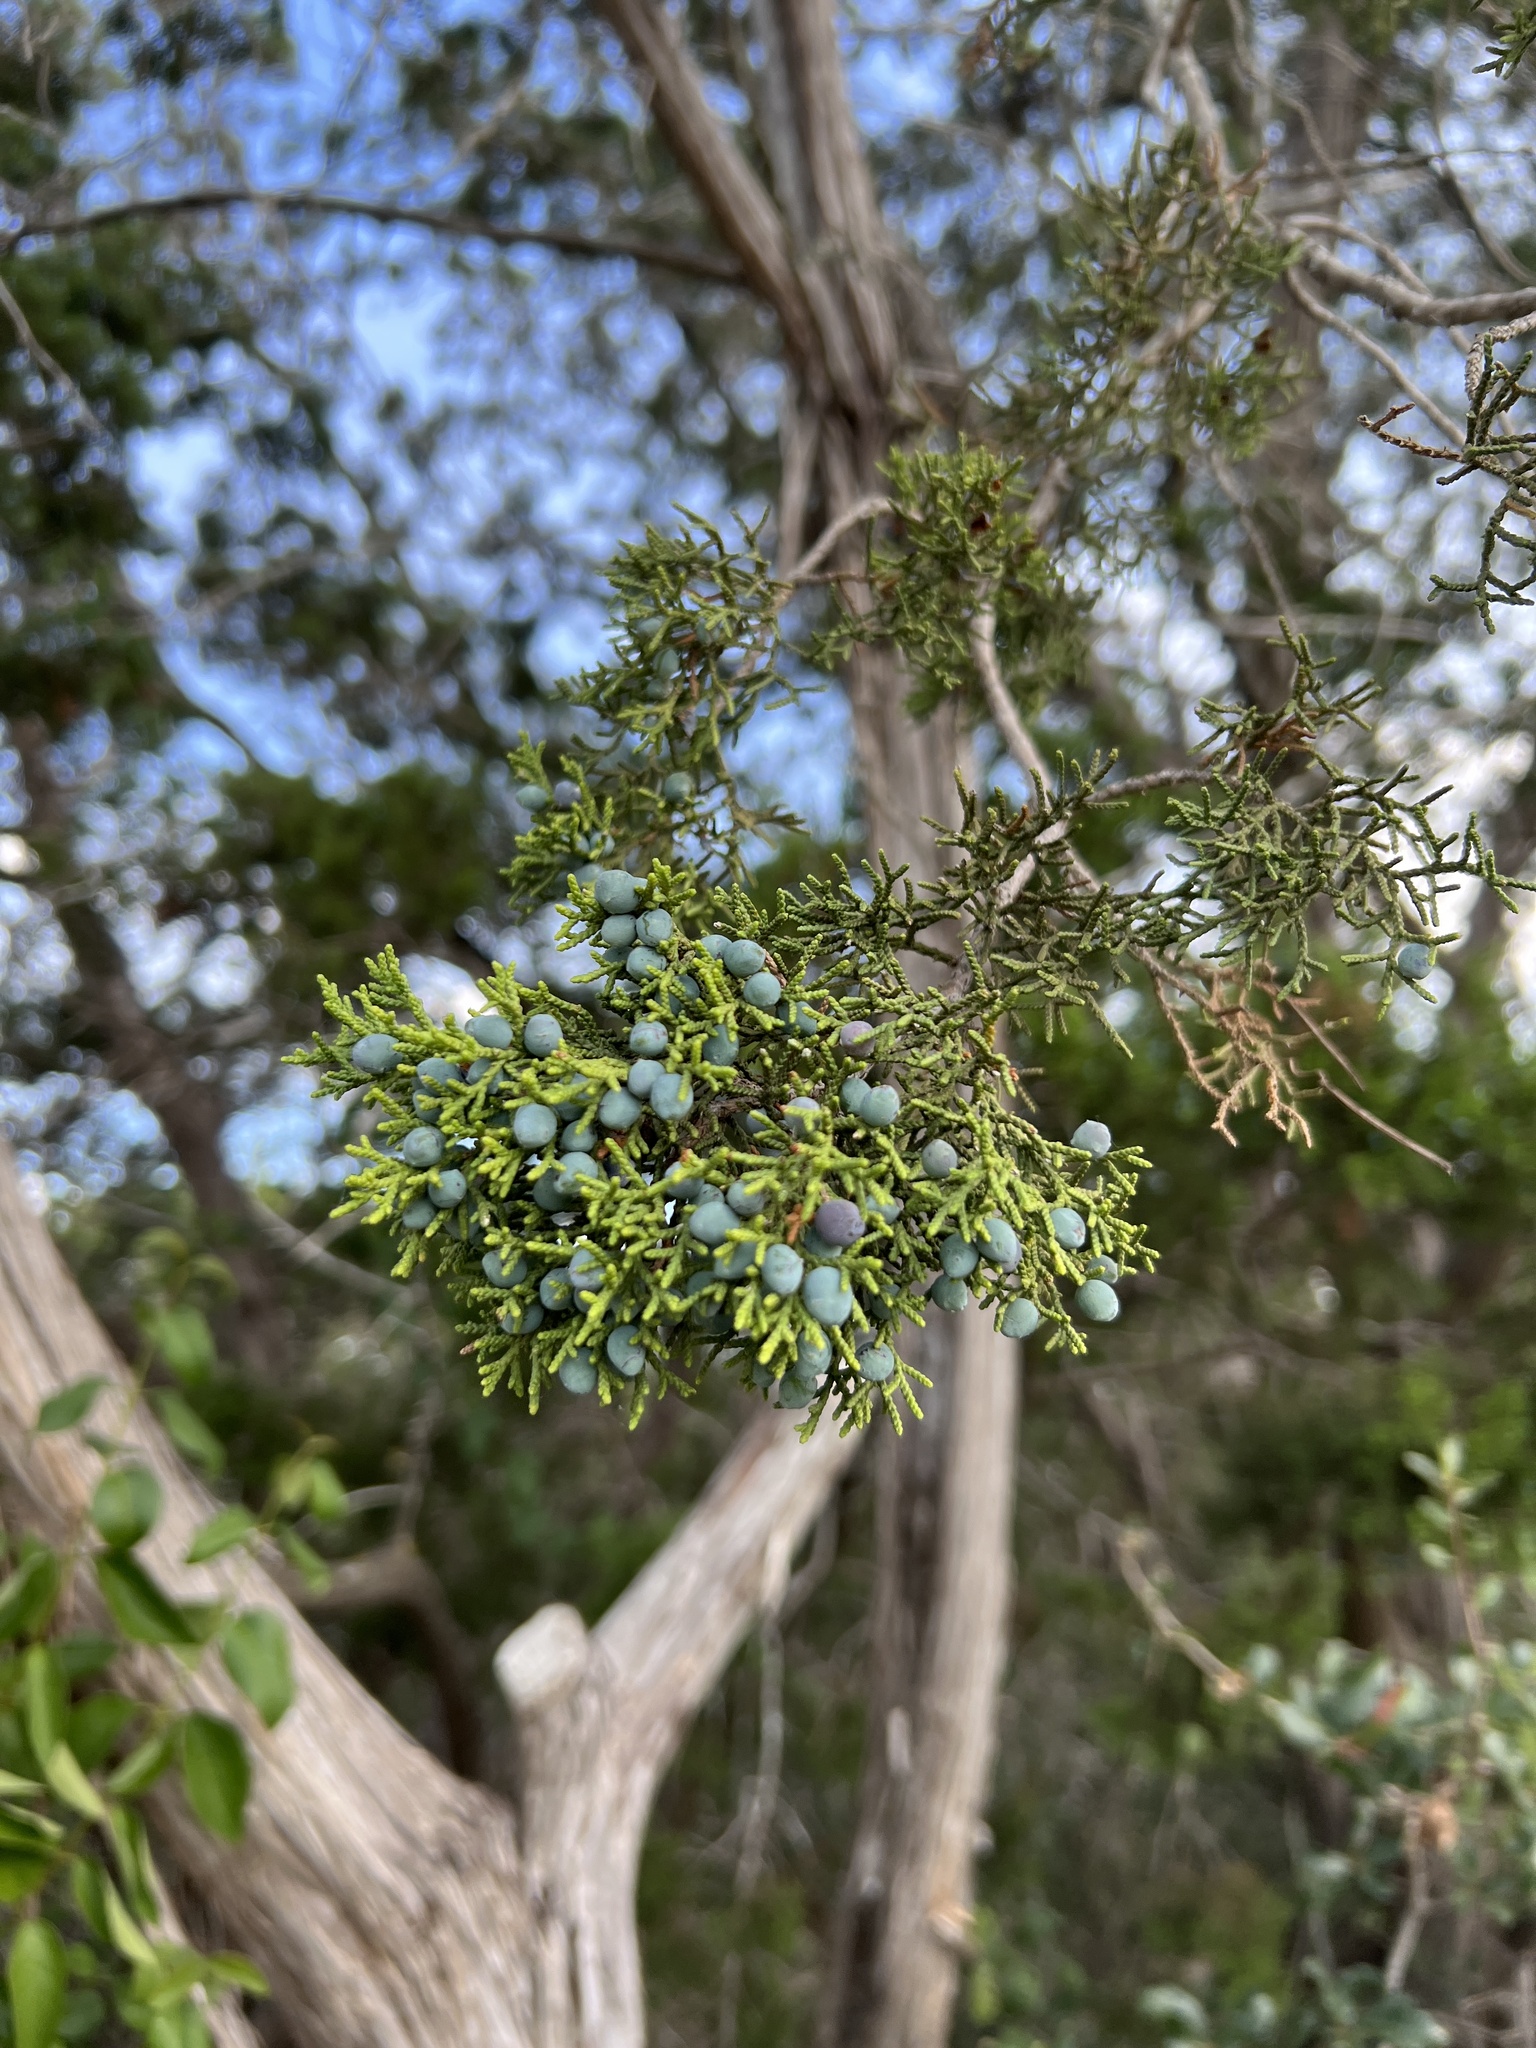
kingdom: Plantae
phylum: Tracheophyta
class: Pinopsida
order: Pinales
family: Cupressaceae
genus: Juniperus
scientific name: Juniperus ashei
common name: Mexican juniper
